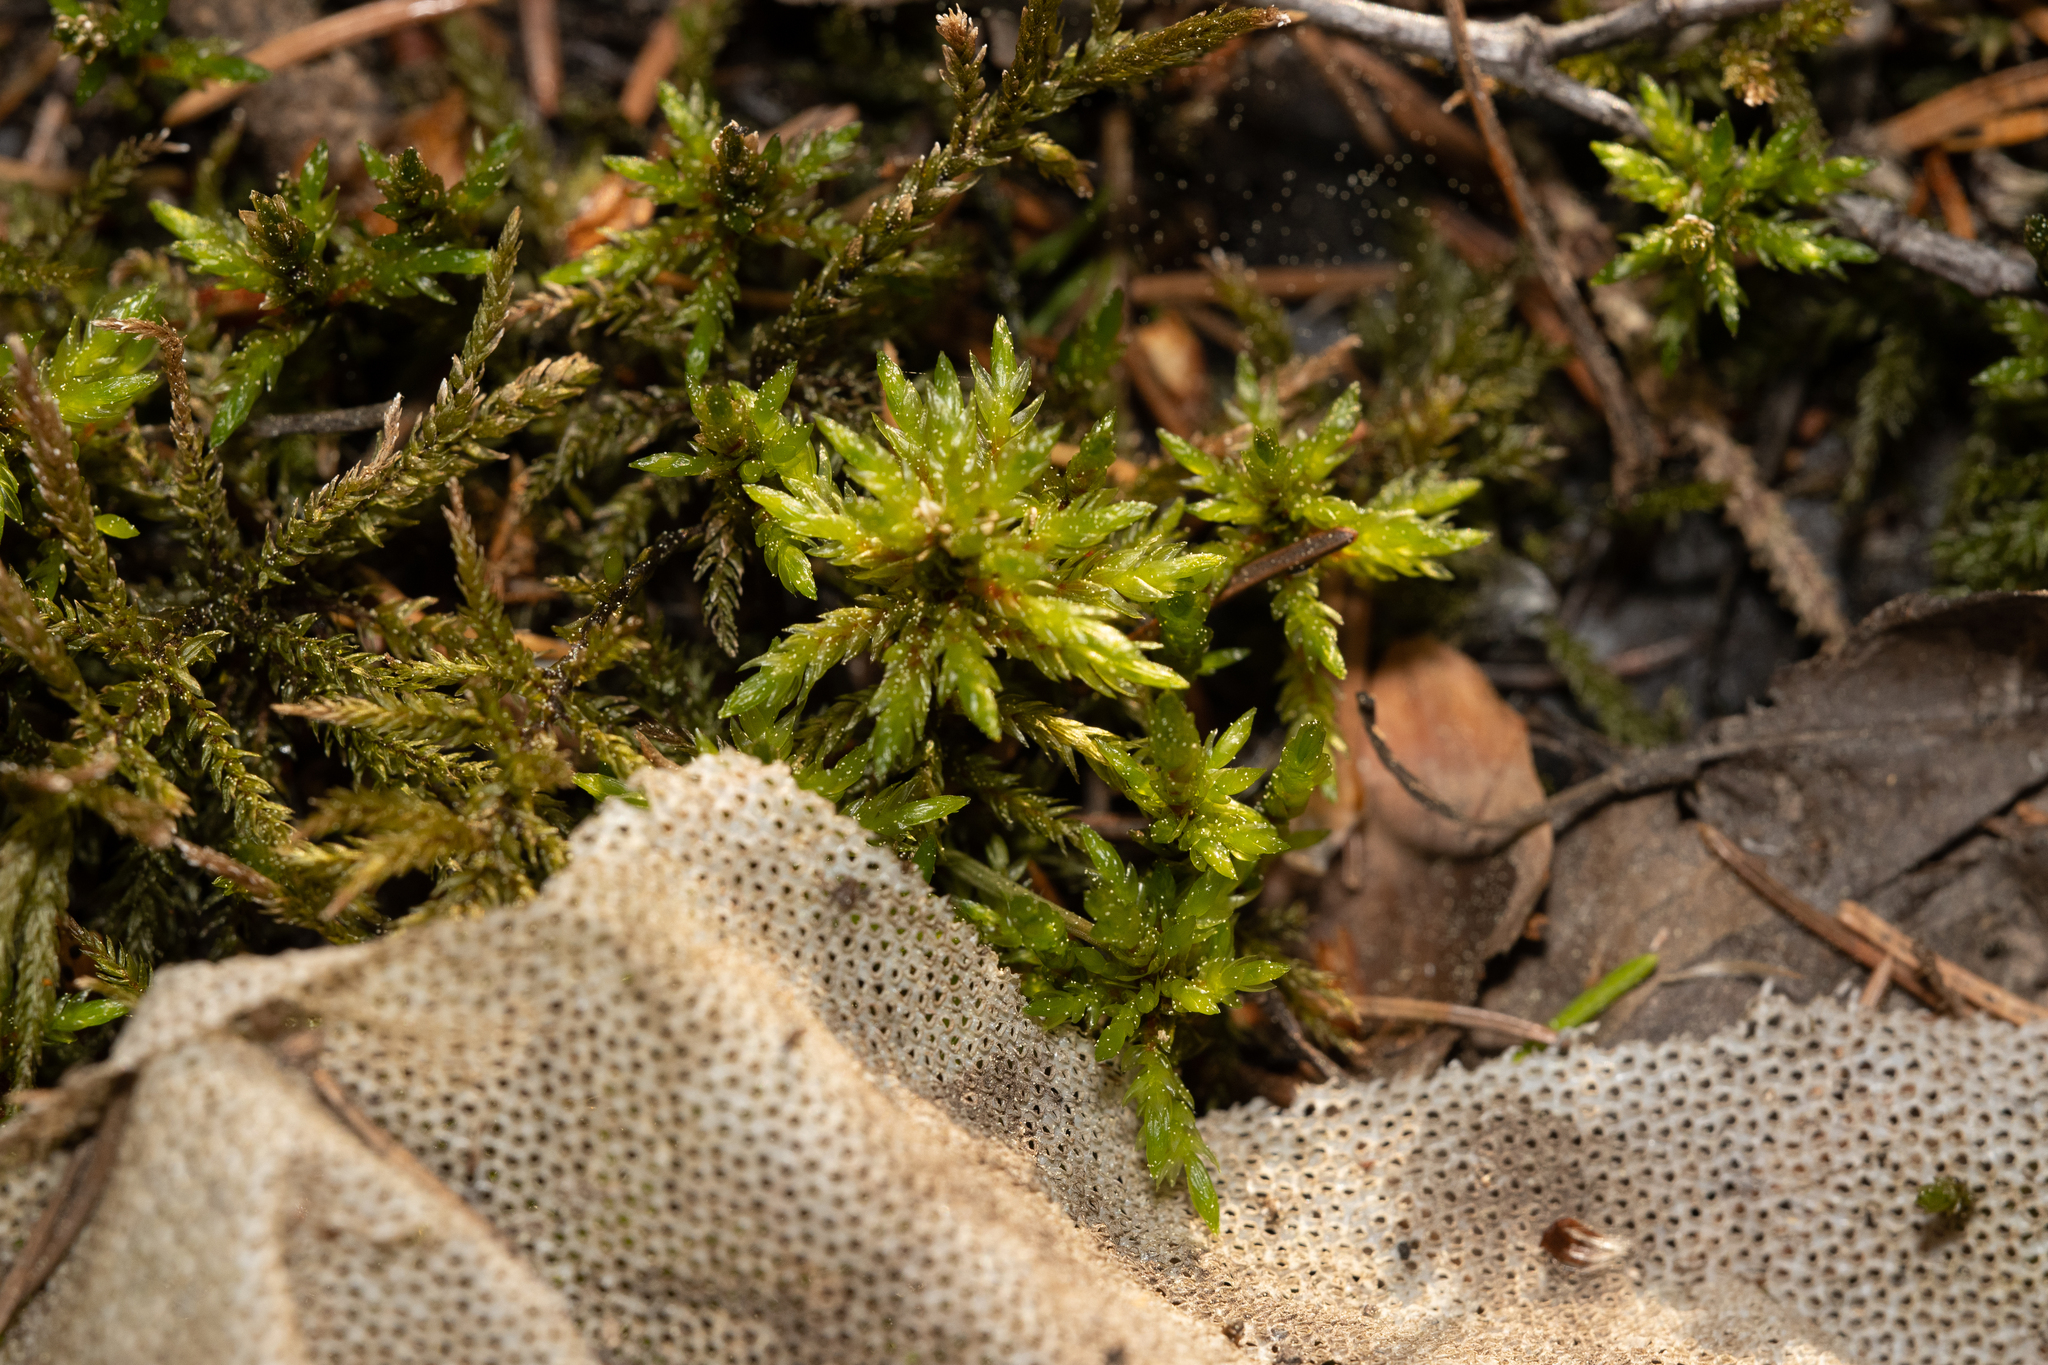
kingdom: Plantae
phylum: Bryophyta
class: Bryopsida
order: Hypnales
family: Climaciaceae
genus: Climacium
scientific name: Climacium dendroides
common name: Northern tree moss
